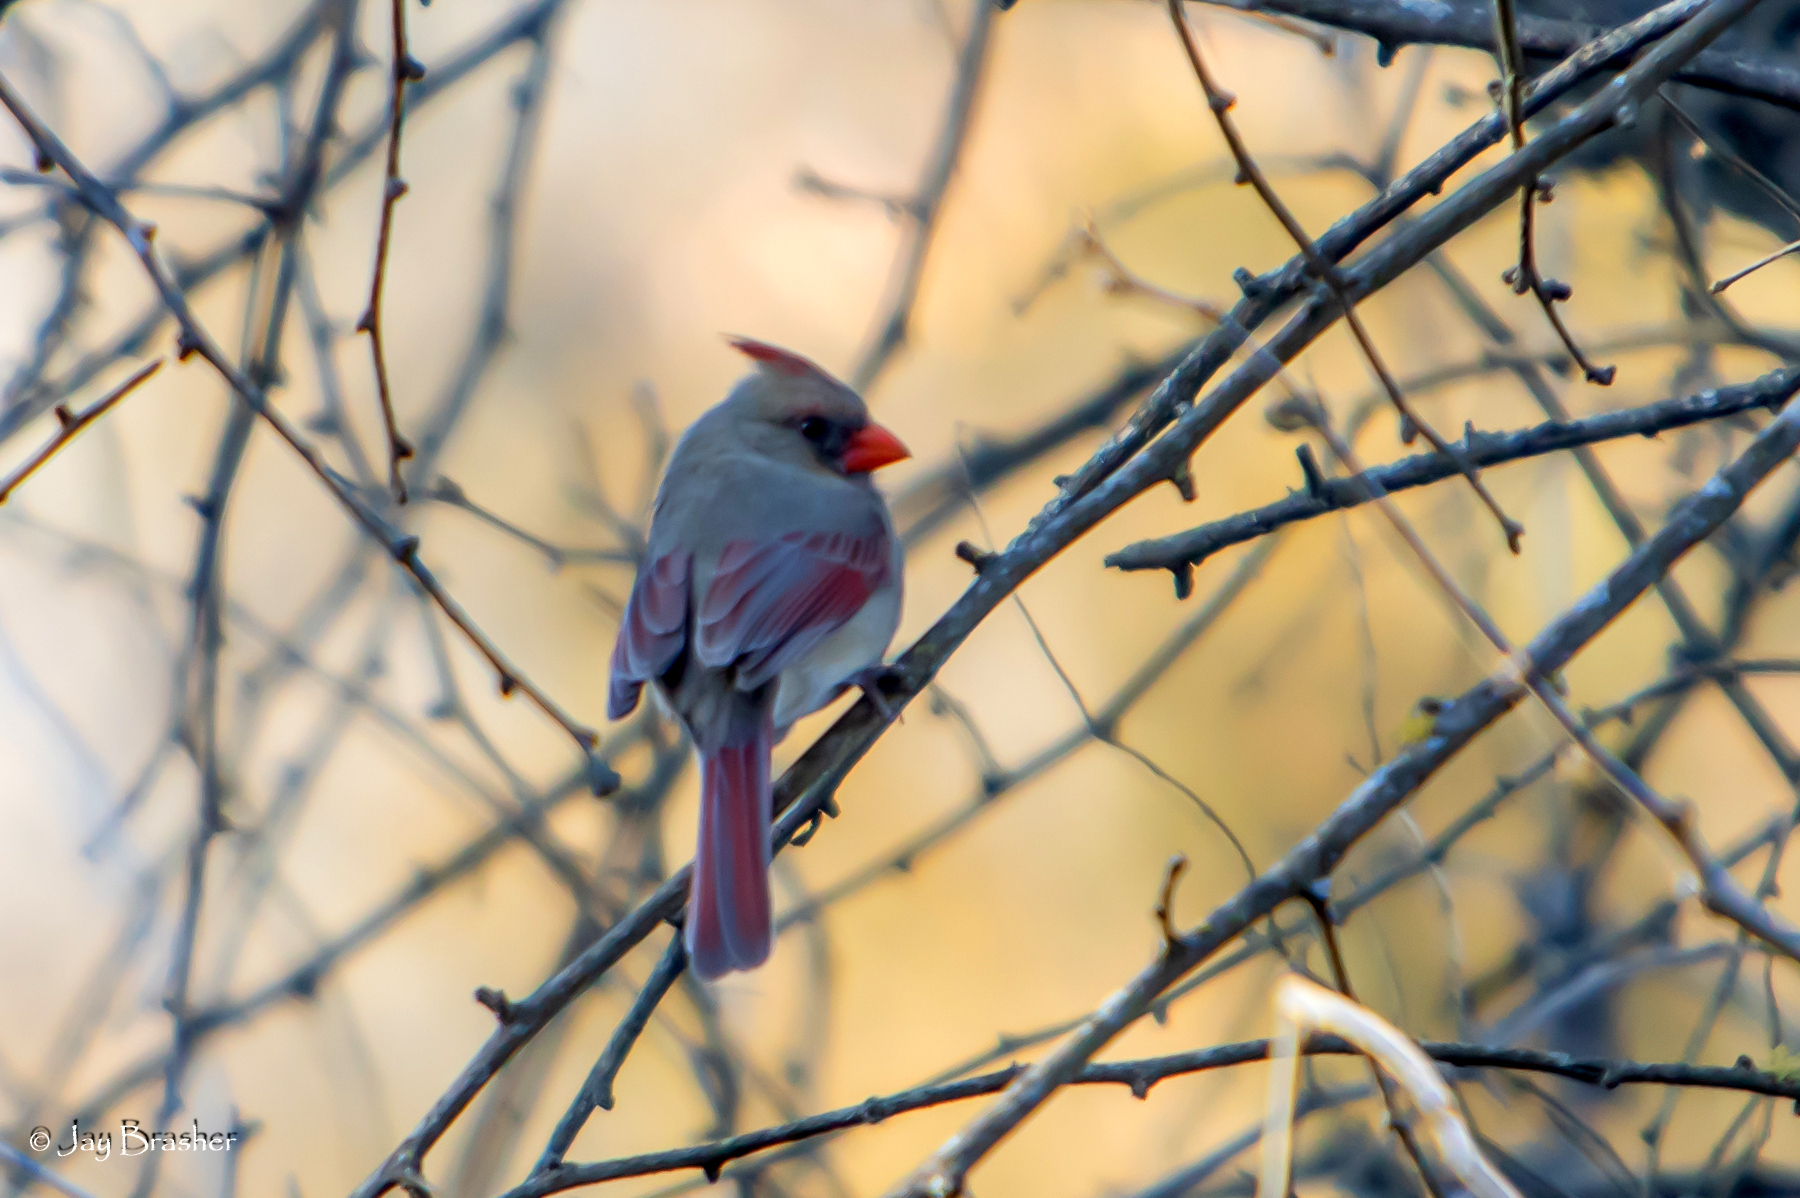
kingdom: Animalia
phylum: Chordata
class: Aves
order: Passeriformes
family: Cardinalidae
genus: Cardinalis
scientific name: Cardinalis cardinalis
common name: Northern cardinal
